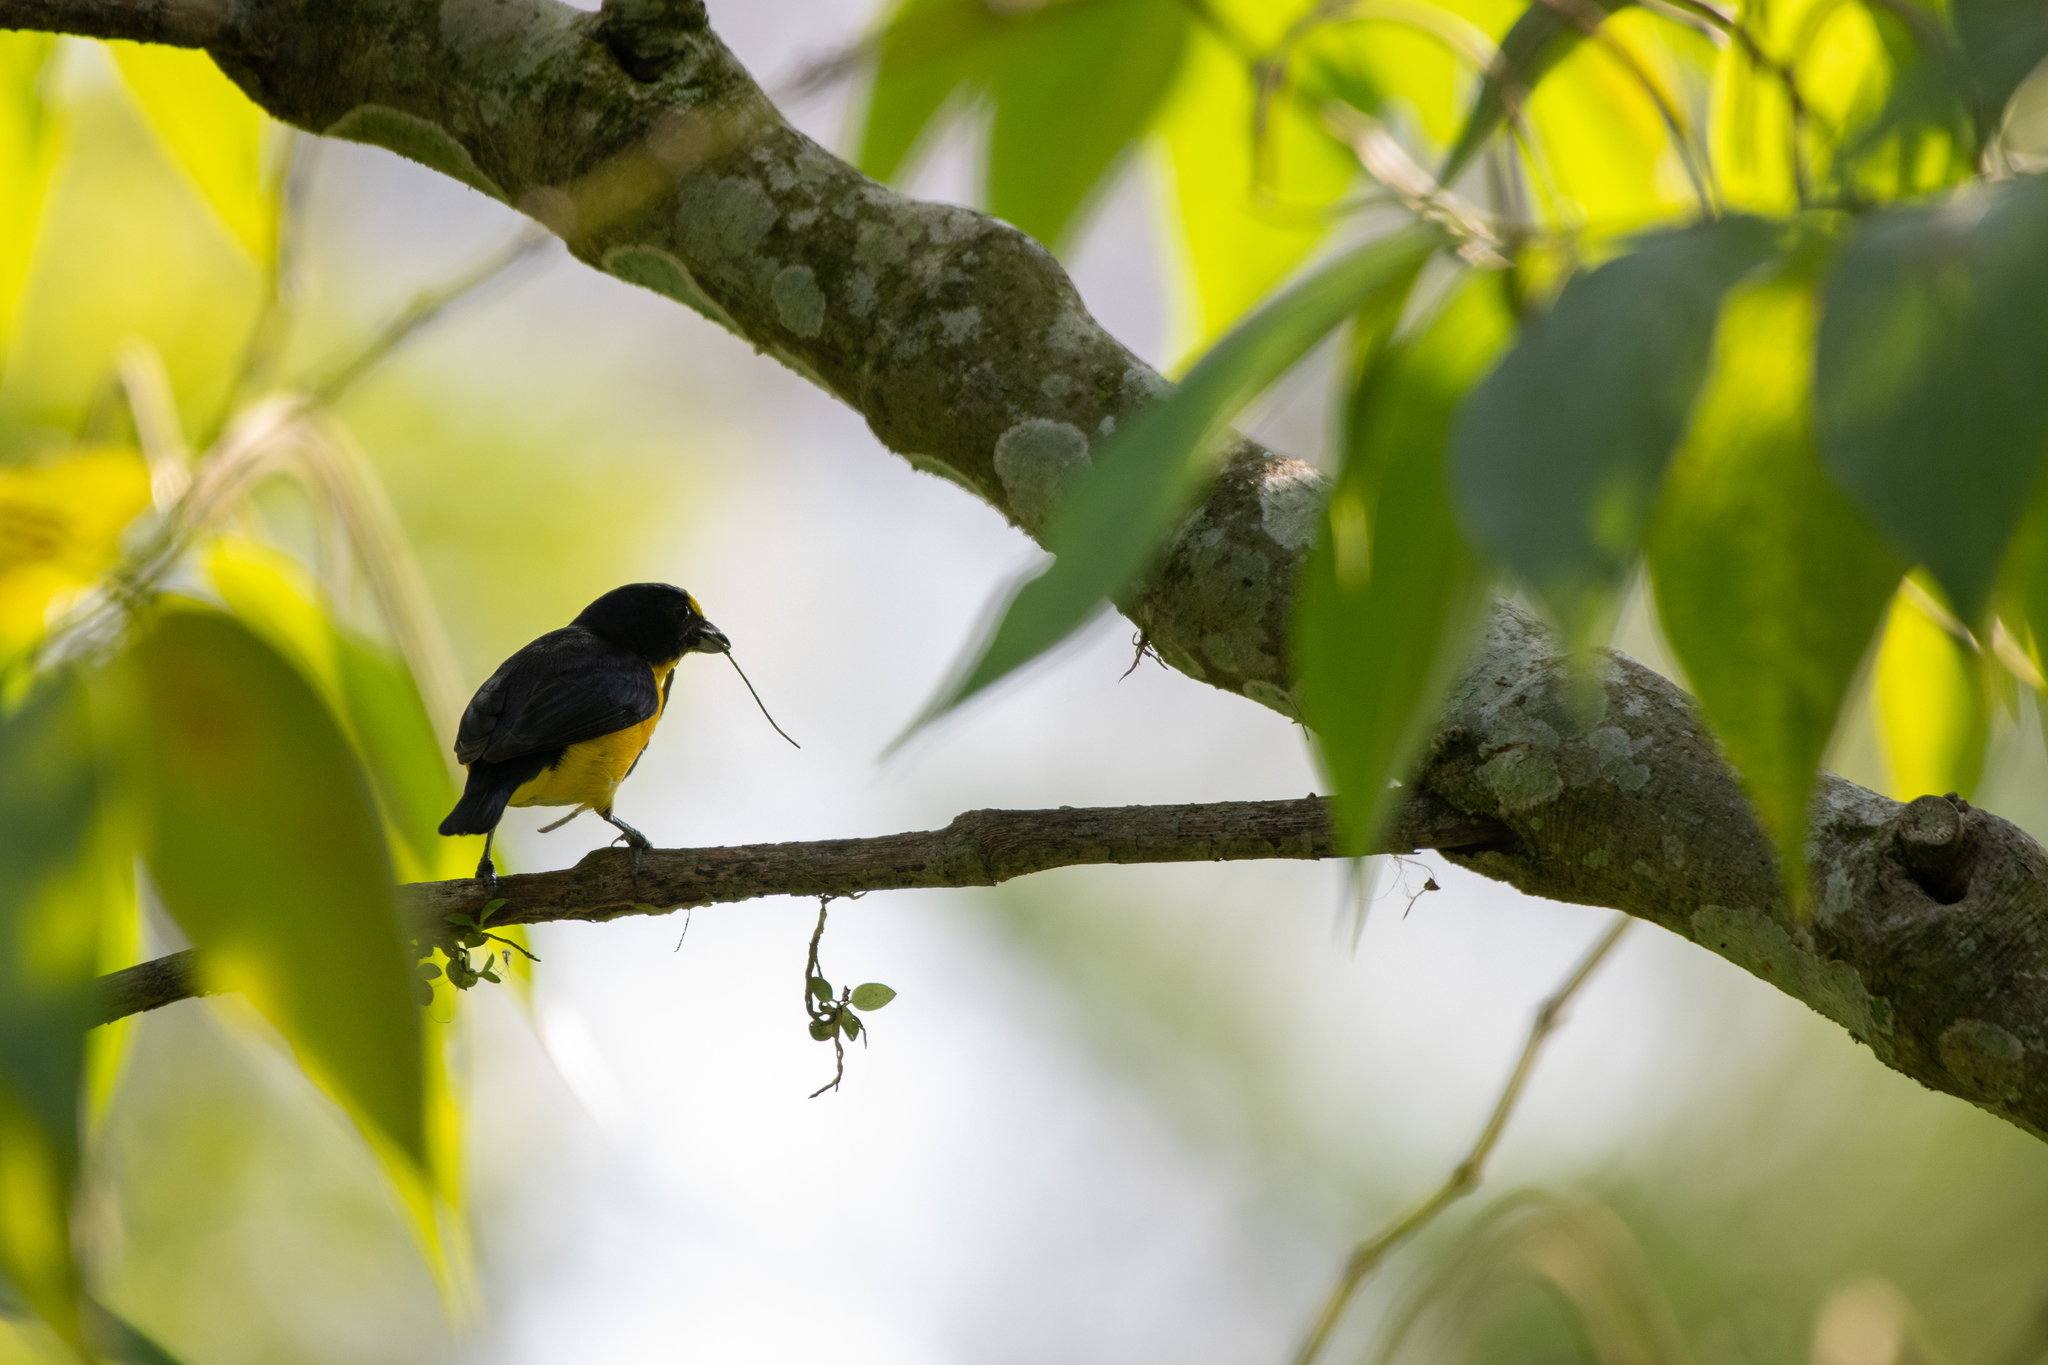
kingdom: Animalia
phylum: Chordata
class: Aves
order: Passeriformes
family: Fringillidae
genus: Euphonia
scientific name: Euphonia hirundinacea
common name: Yellow-throated euphonia
